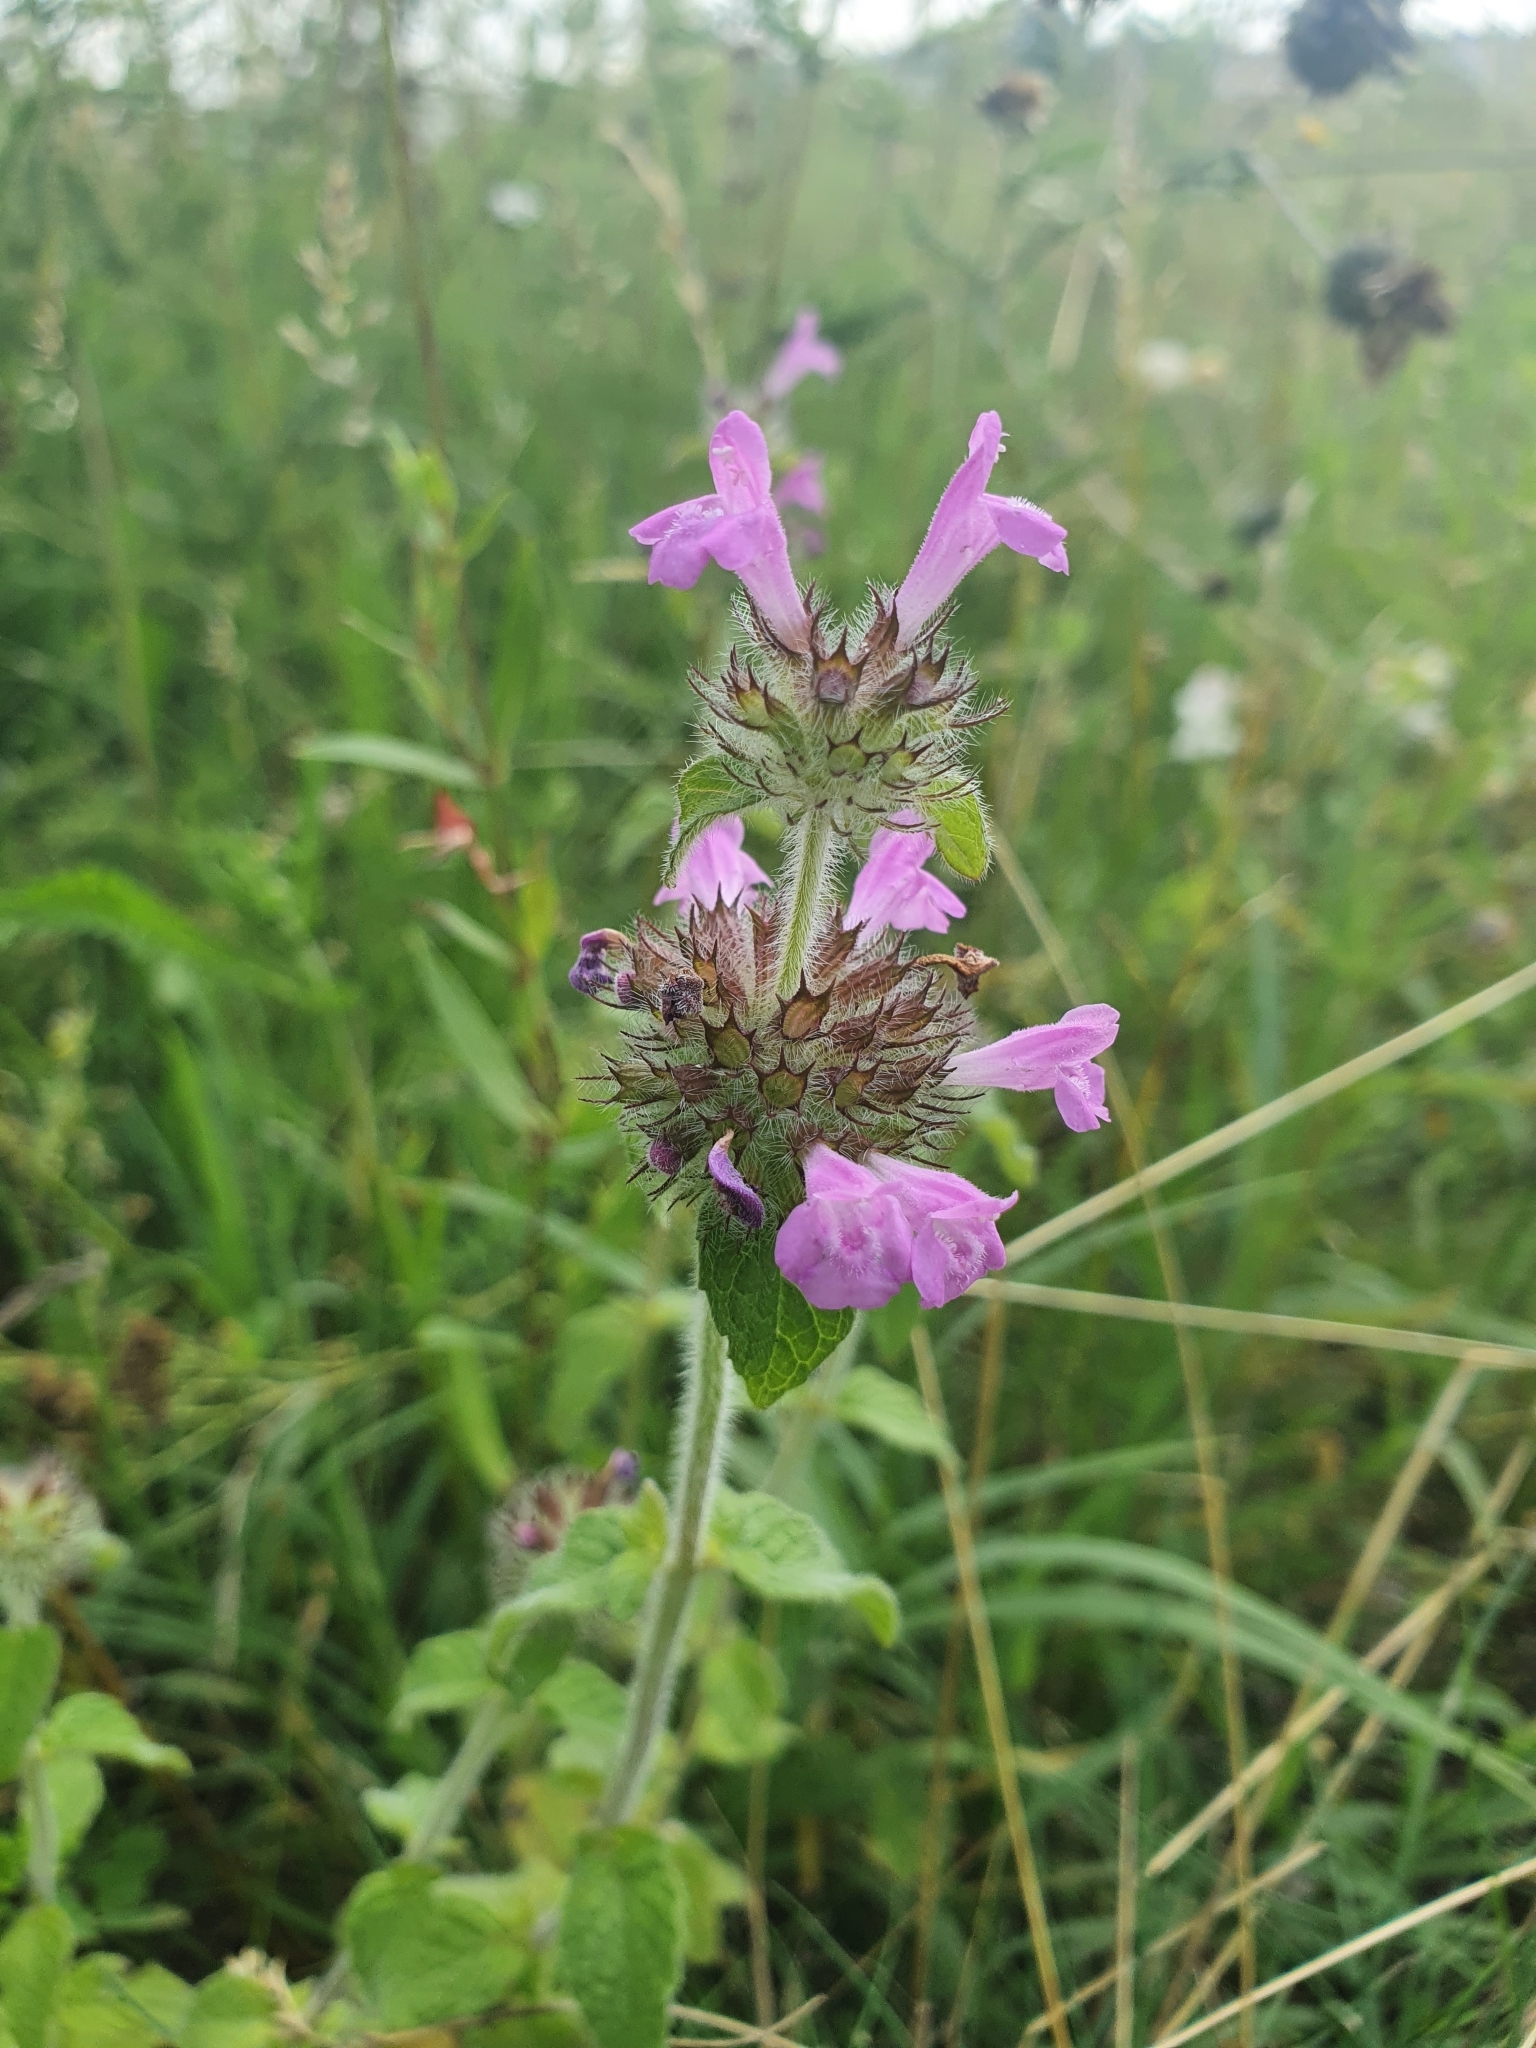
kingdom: Plantae
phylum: Tracheophyta
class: Magnoliopsida
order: Lamiales
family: Lamiaceae
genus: Clinopodium
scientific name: Clinopodium vulgare
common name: Wild basil
